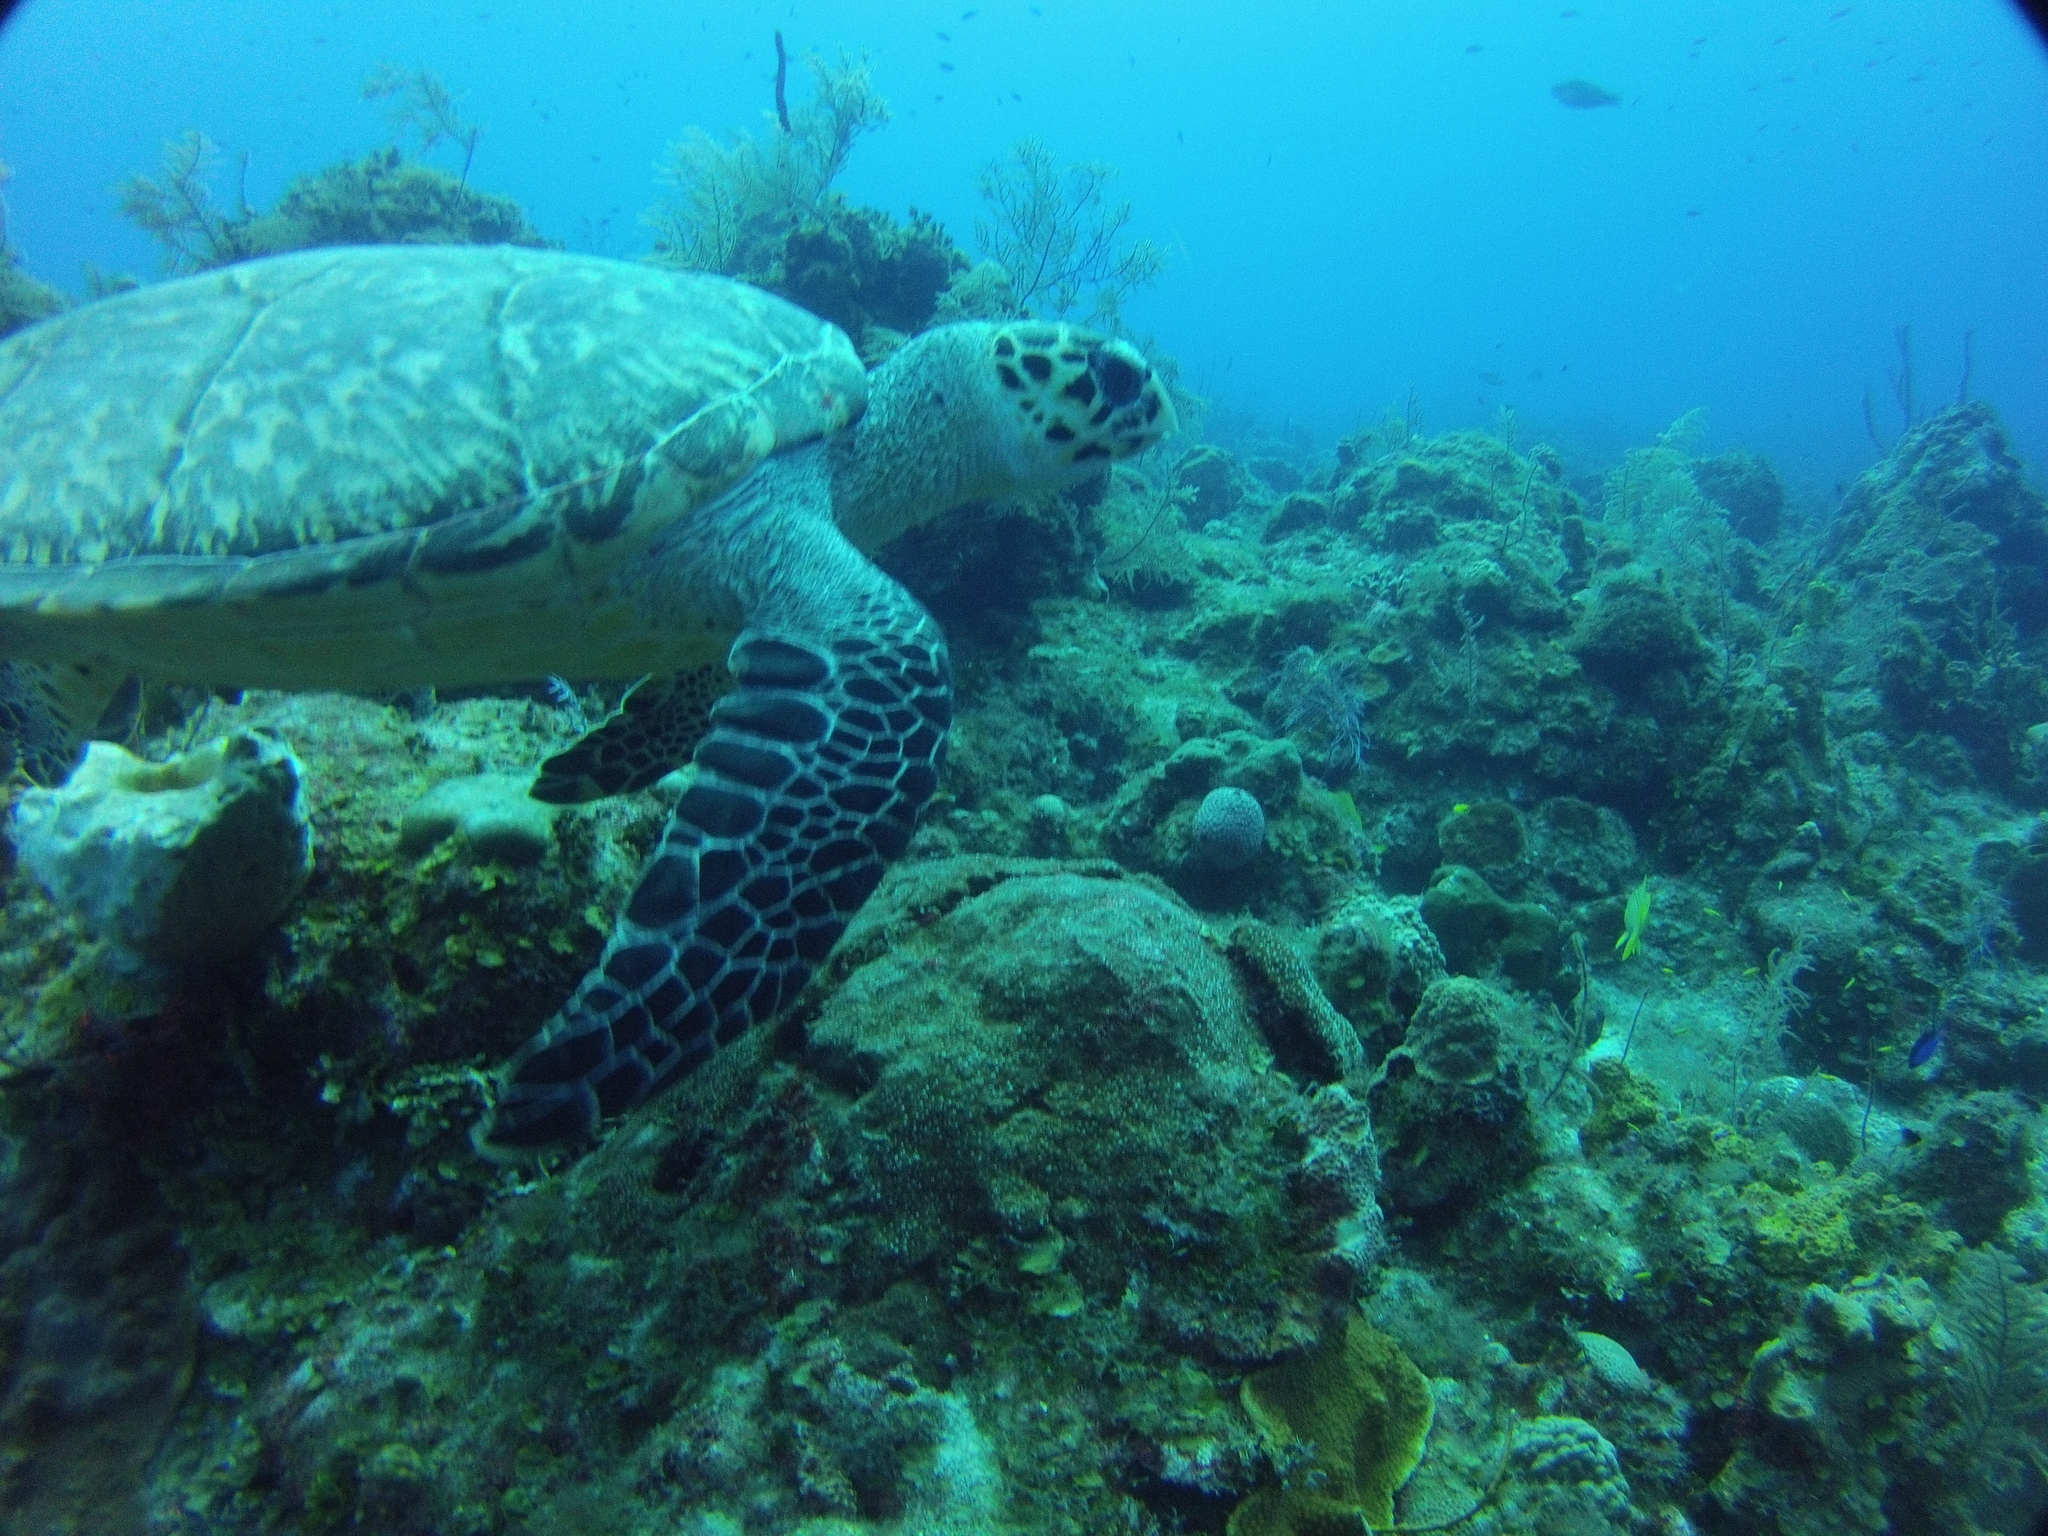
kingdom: Animalia
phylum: Chordata
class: Testudines
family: Cheloniidae
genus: Eretmochelys
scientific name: Eretmochelys imbricata
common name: Hawksbill turtle
